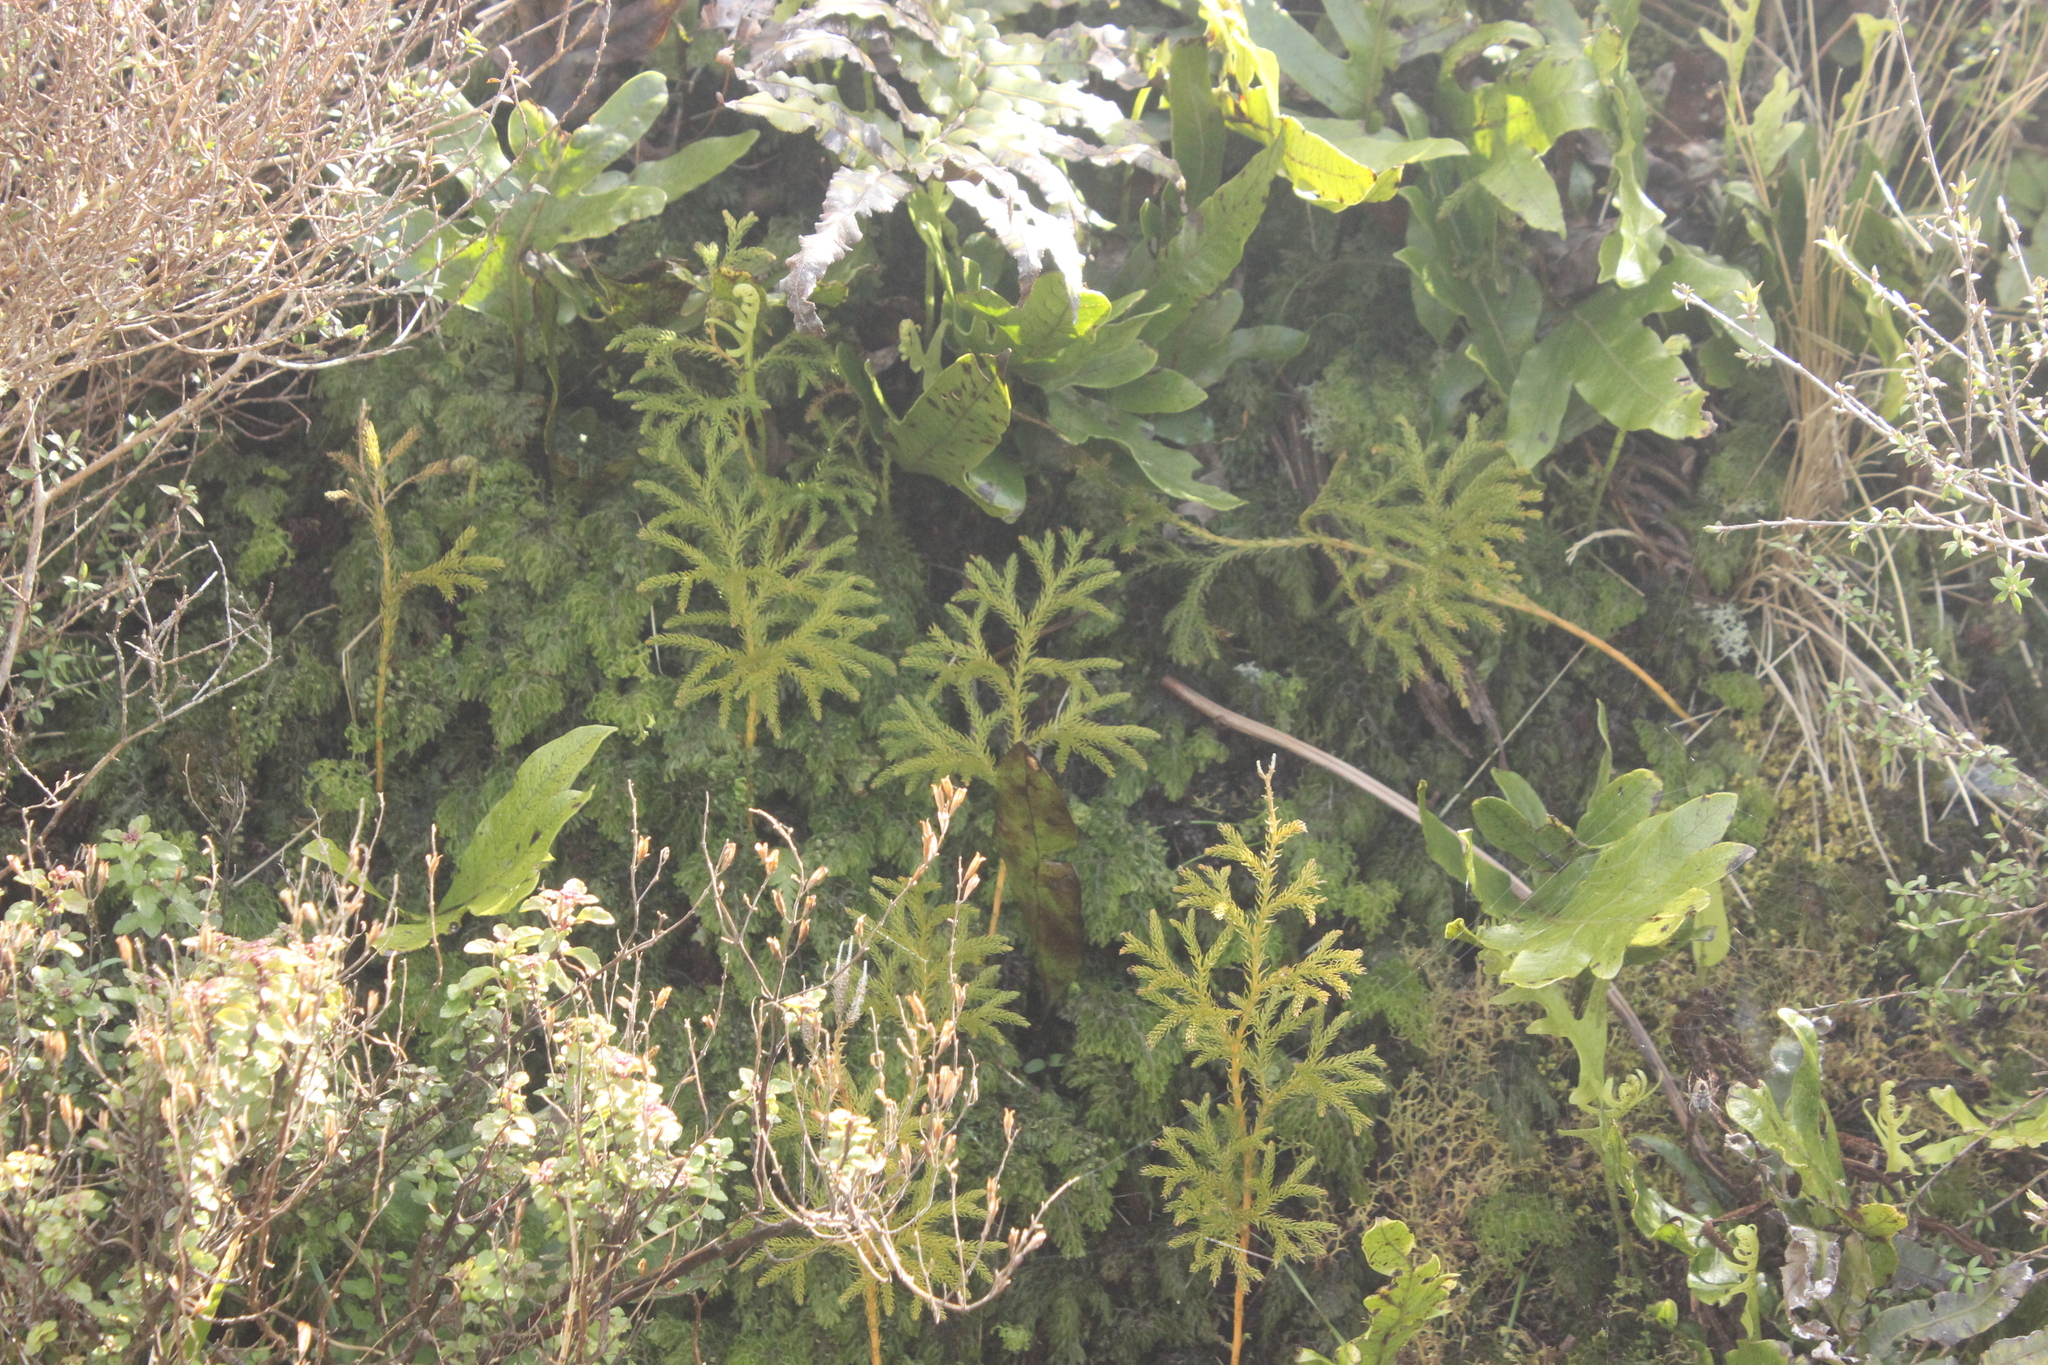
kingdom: Plantae
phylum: Tracheophyta
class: Lycopodiopsida
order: Lycopodiales
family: Lycopodiaceae
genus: Austrolycopodium
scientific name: Austrolycopodium fastigiatum
